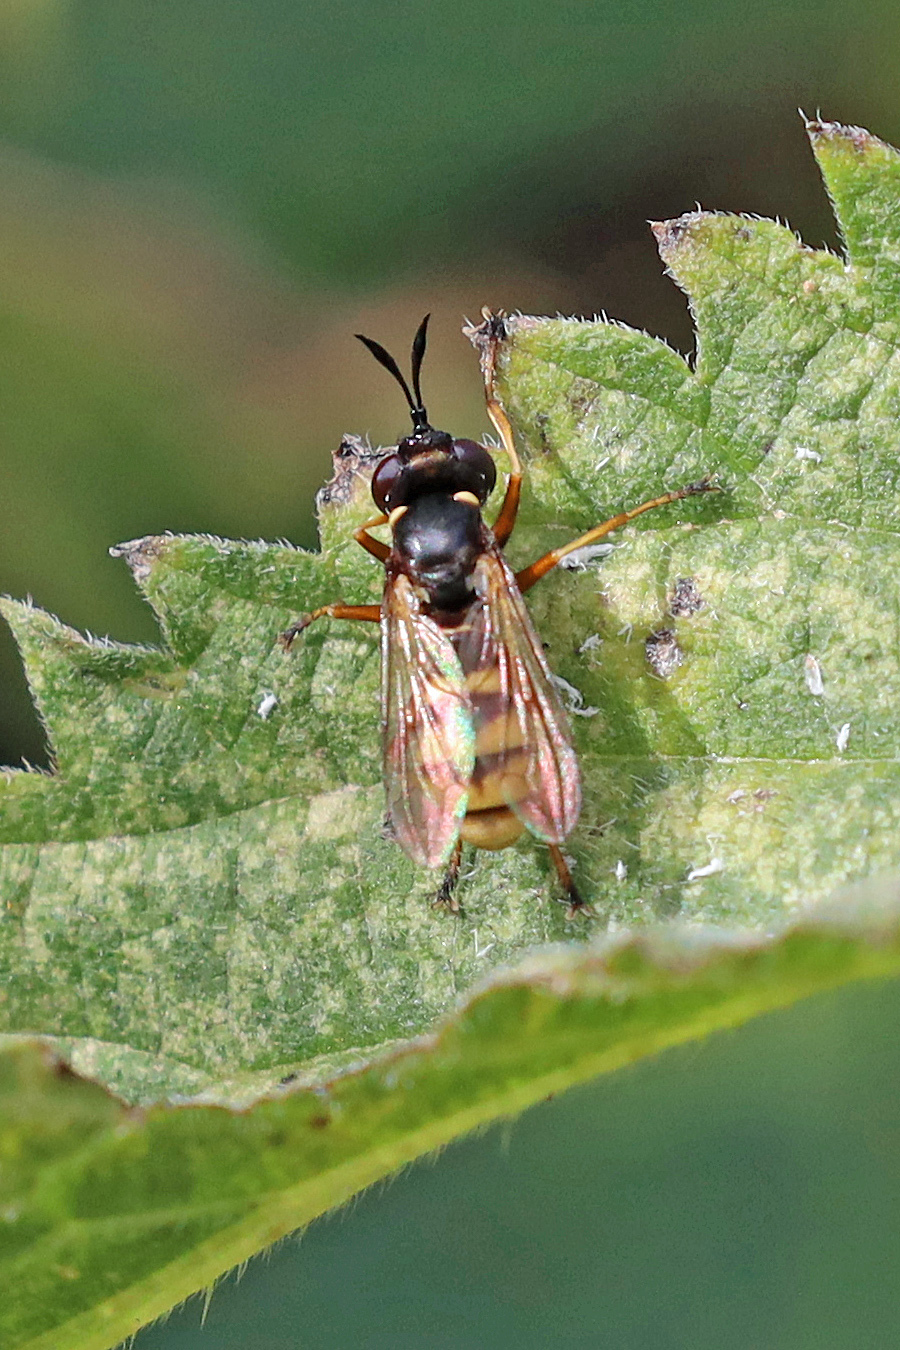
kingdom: Animalia
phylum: Arthropoda
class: Insecta
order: Diptera
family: Conopidae
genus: Conops
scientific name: Conops quadrifasciatus
